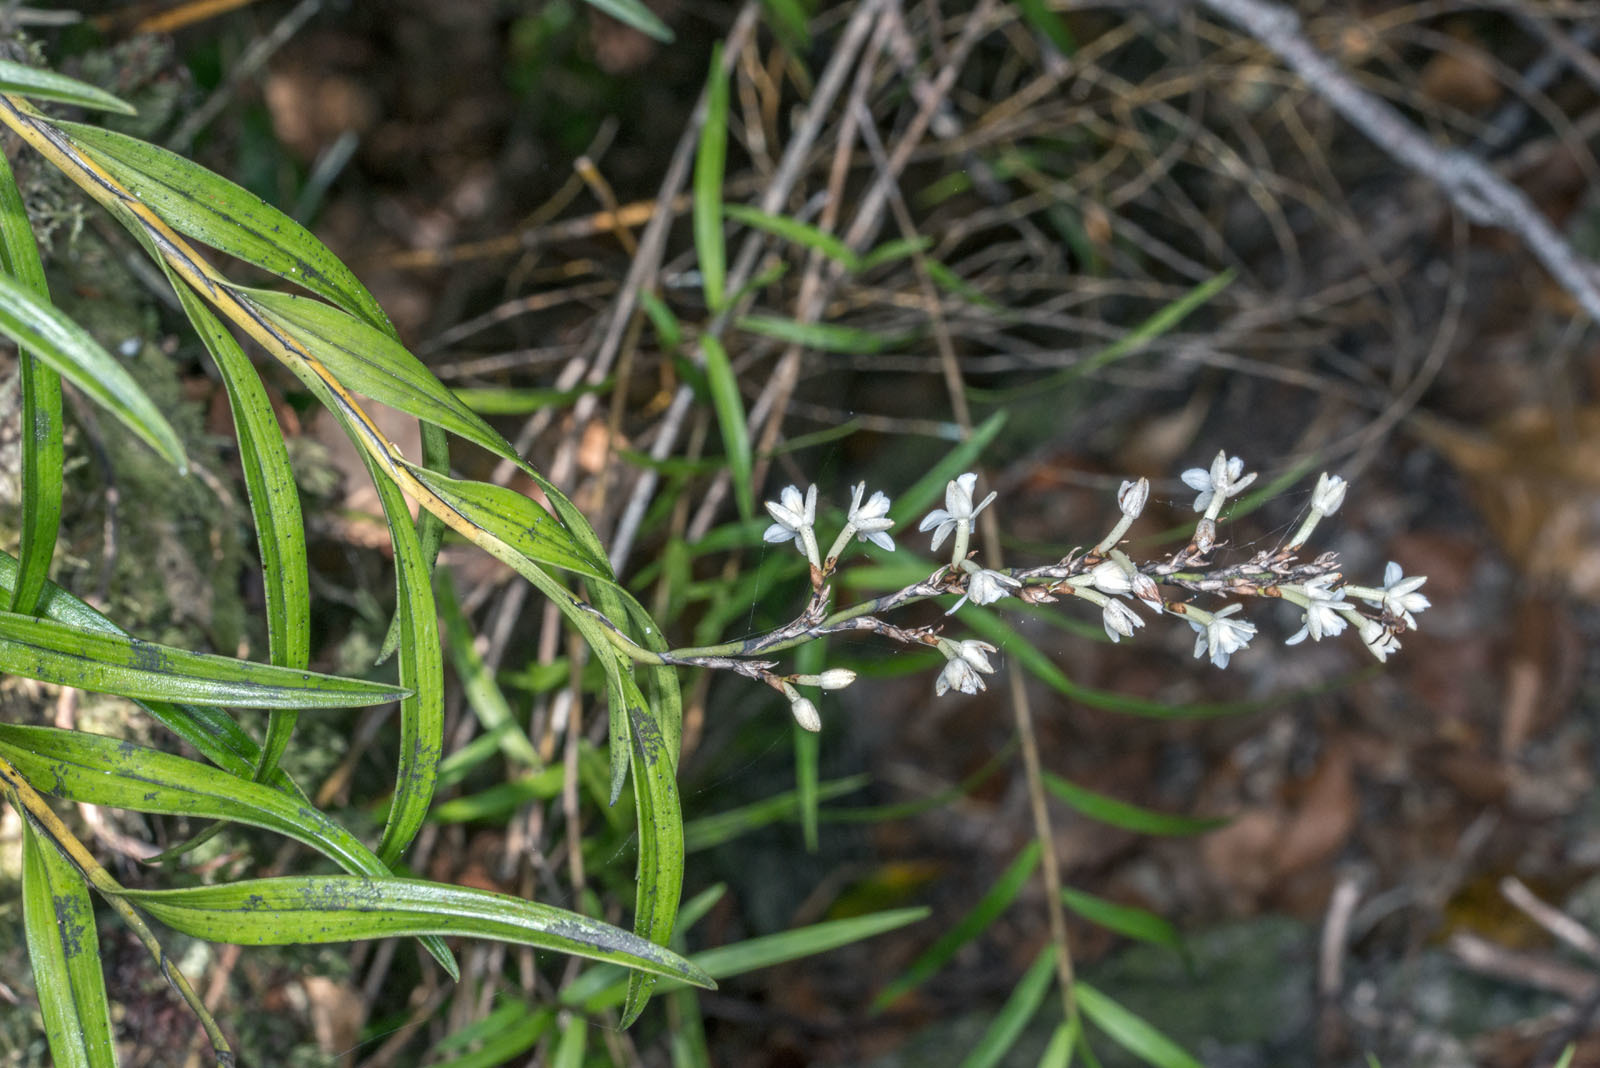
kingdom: Plantae
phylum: Tracheophyta
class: Liliopsida
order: Asparagales
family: Orchidaceae
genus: Earina
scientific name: Earina autumnalis
